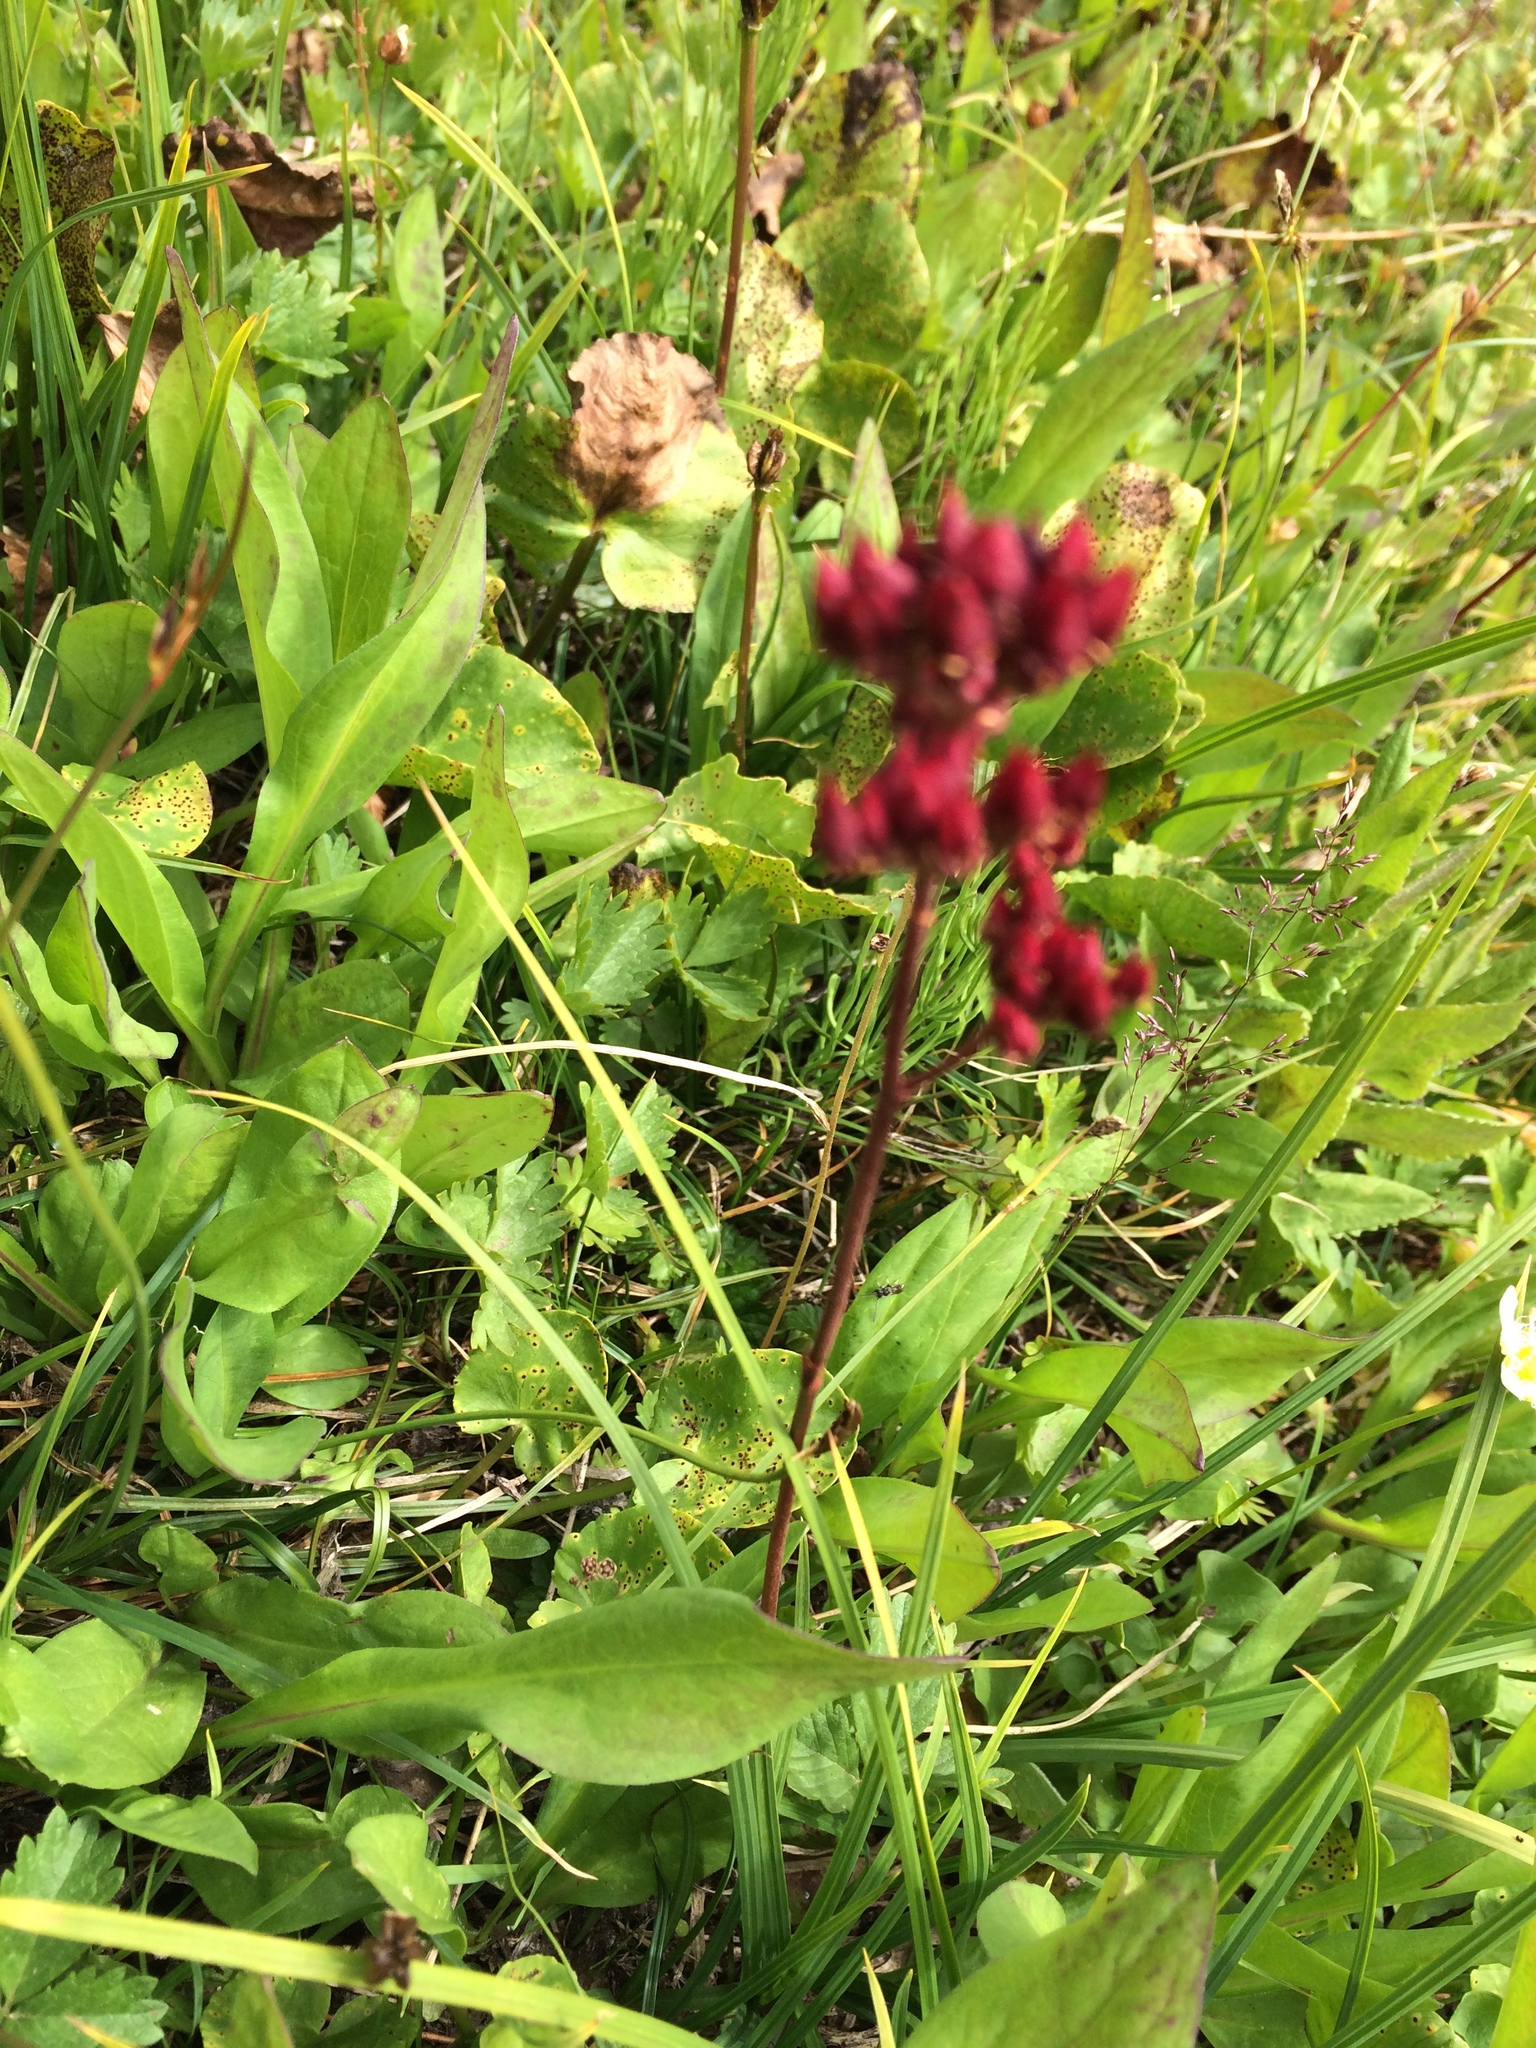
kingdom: Plantae
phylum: Tracheophyta
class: Magnoliopsida
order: Saxifragales
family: Saxifragaceae
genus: Leptarrhena
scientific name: Leptarrhena pyrolifolia
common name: Leatherleaf-saxifrage
